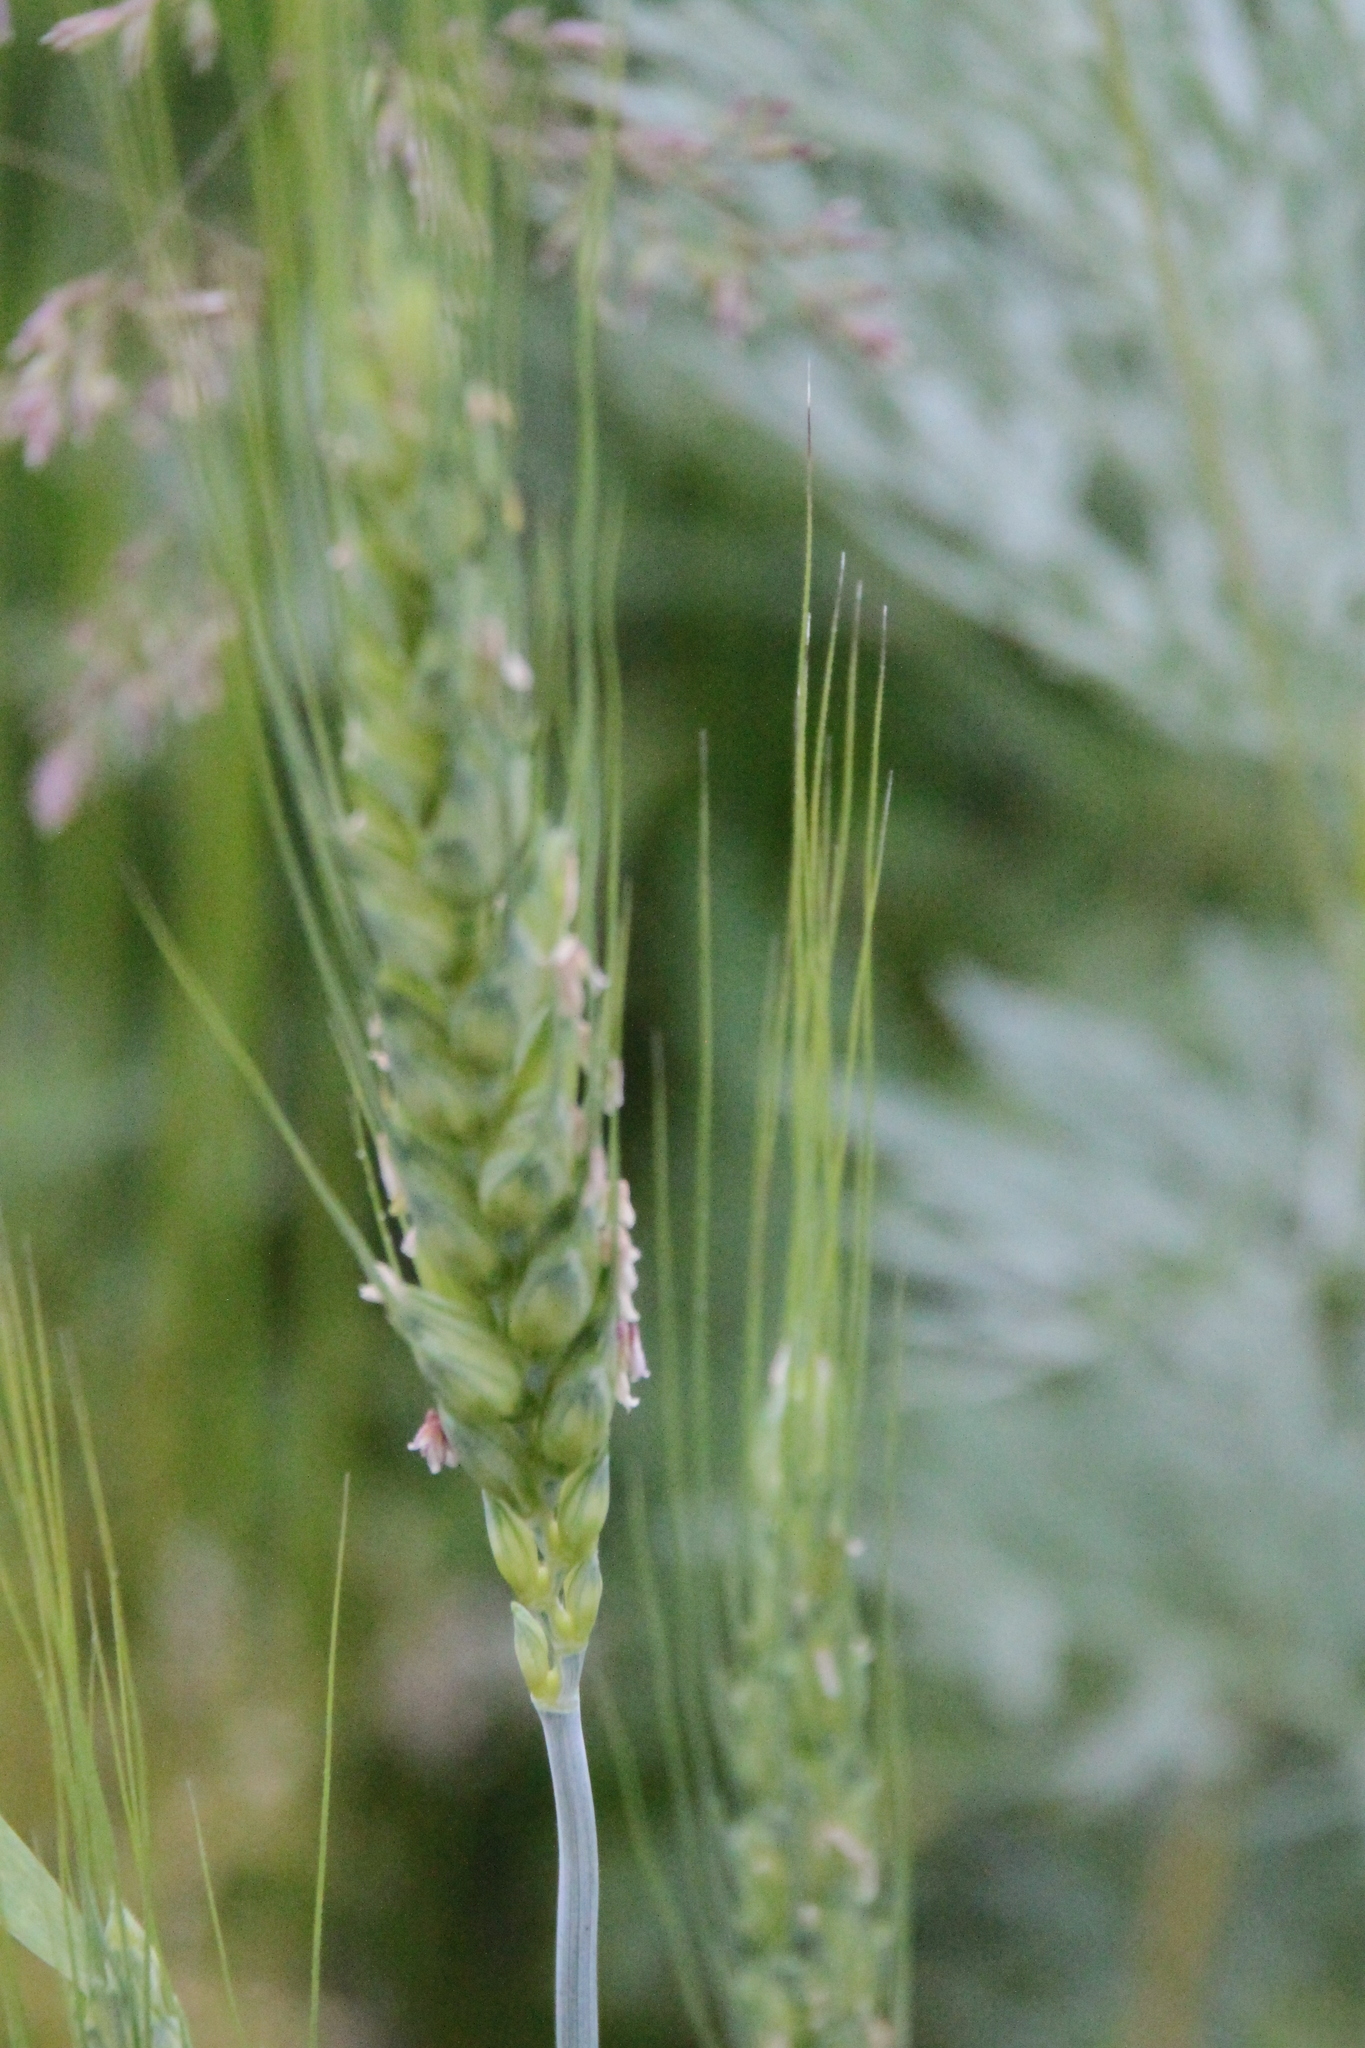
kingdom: Plantae
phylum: Tracheophyta
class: Liliopsida
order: Poales
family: Poaceae
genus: Triticum
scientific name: Triticum aestivum
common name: Common wheat
